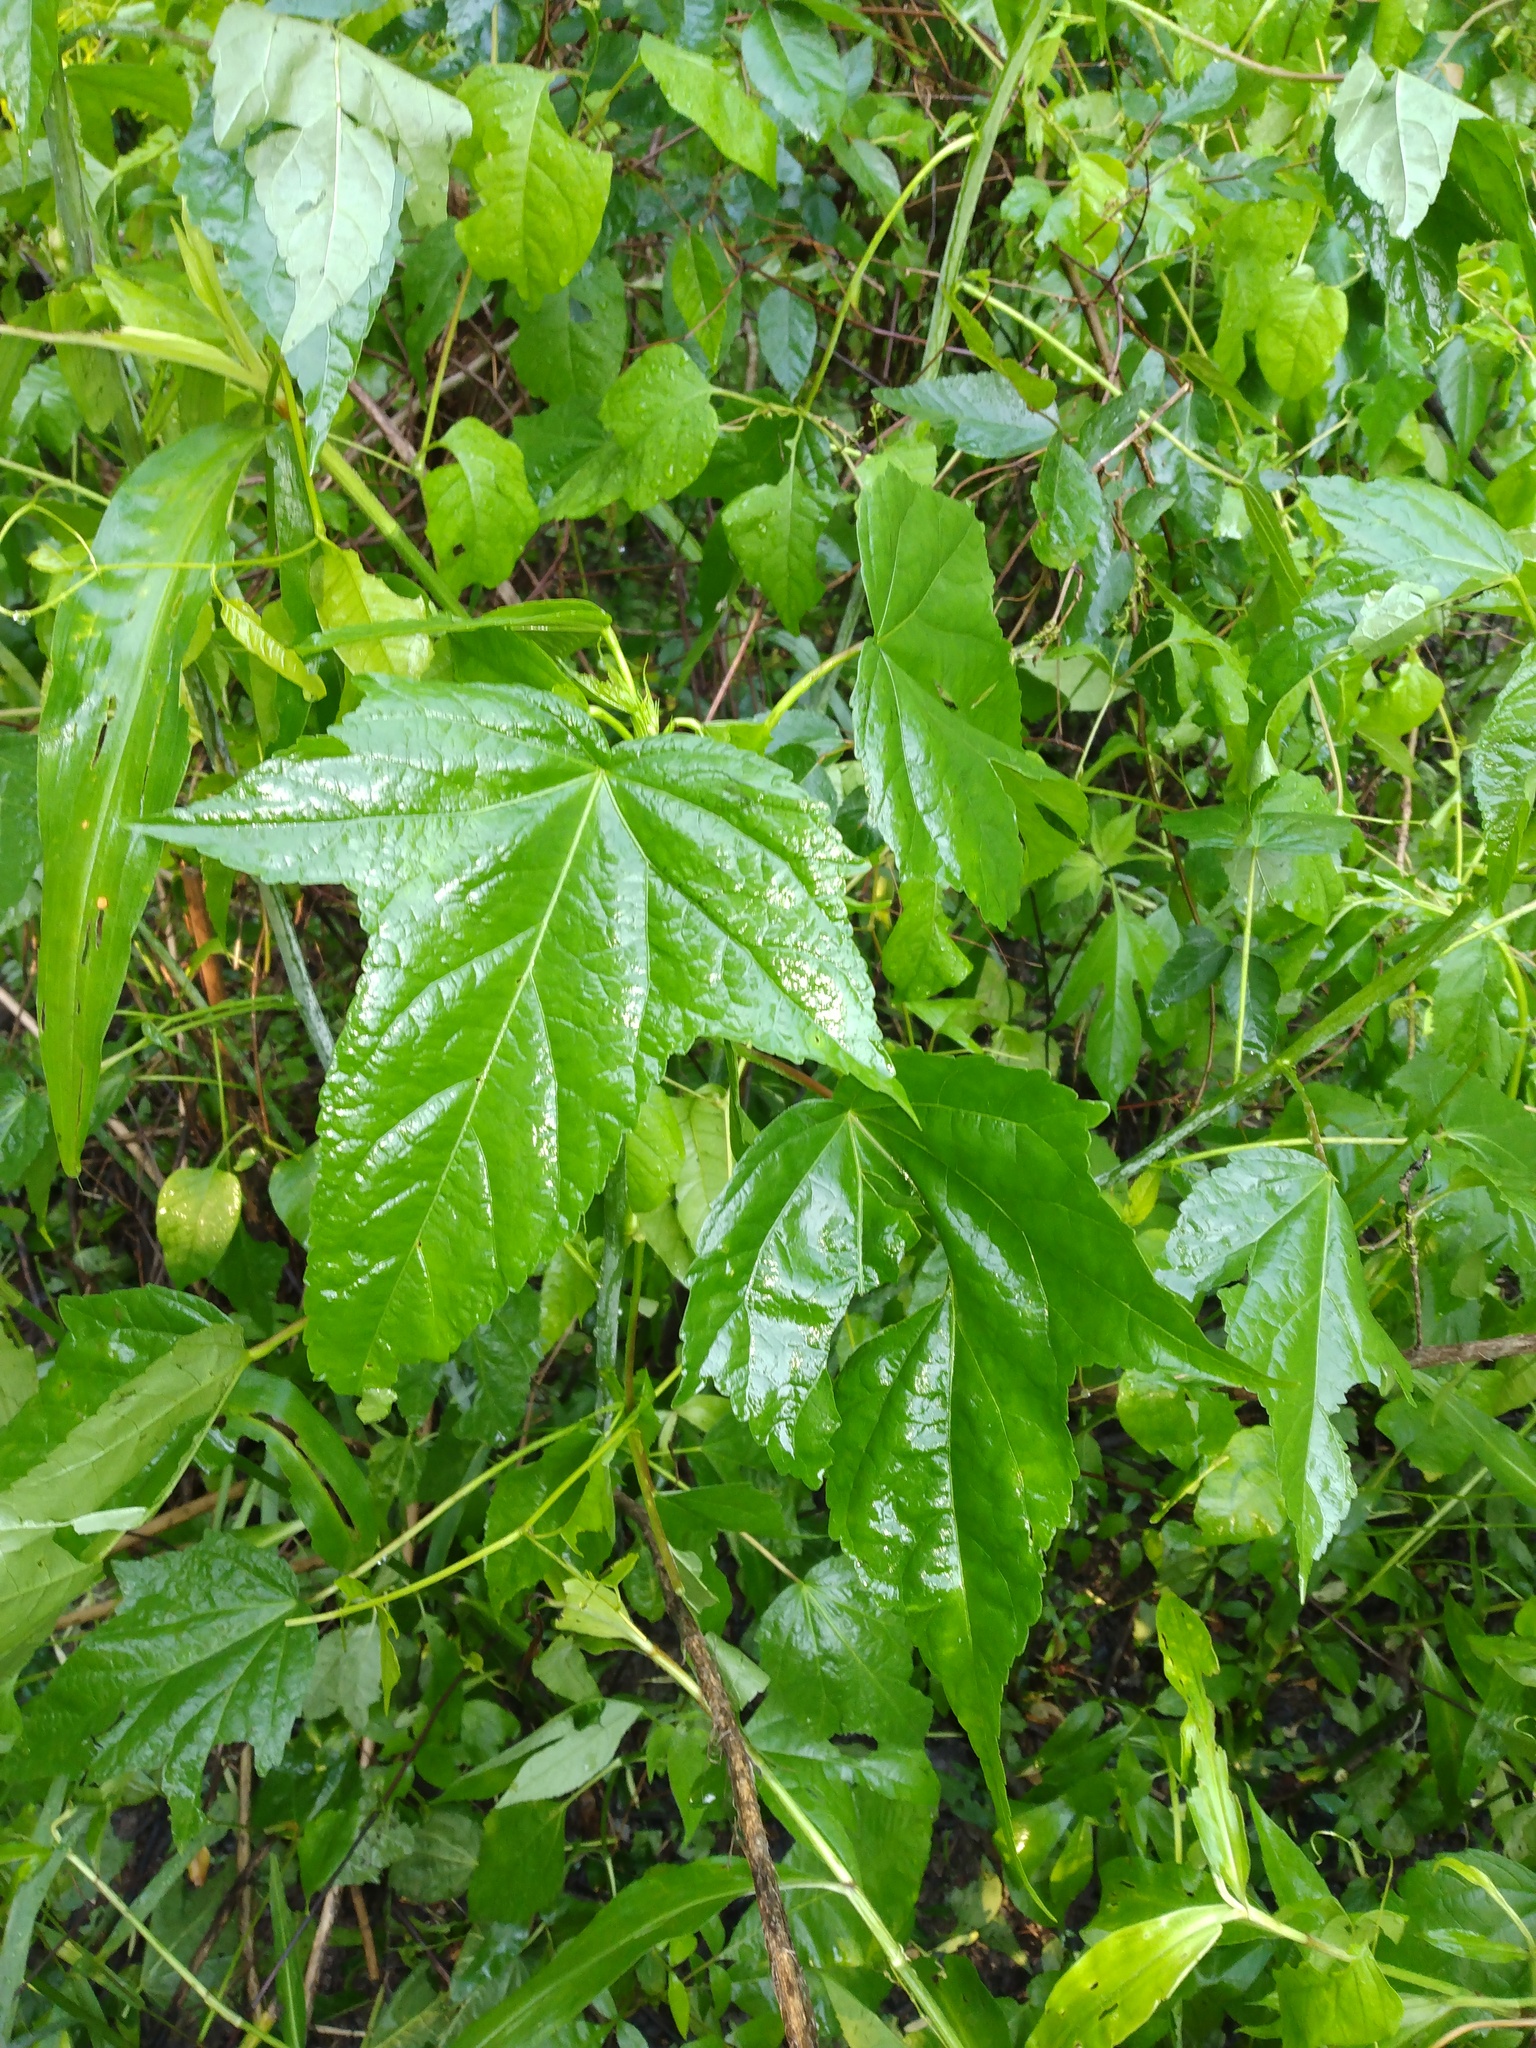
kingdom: Plantae
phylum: Tracheophyta
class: Magnoliopsida
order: Malvales
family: Malvaceae
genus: Hibiscus
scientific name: Hibiscus laevis
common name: Scarlet rose-mallow
